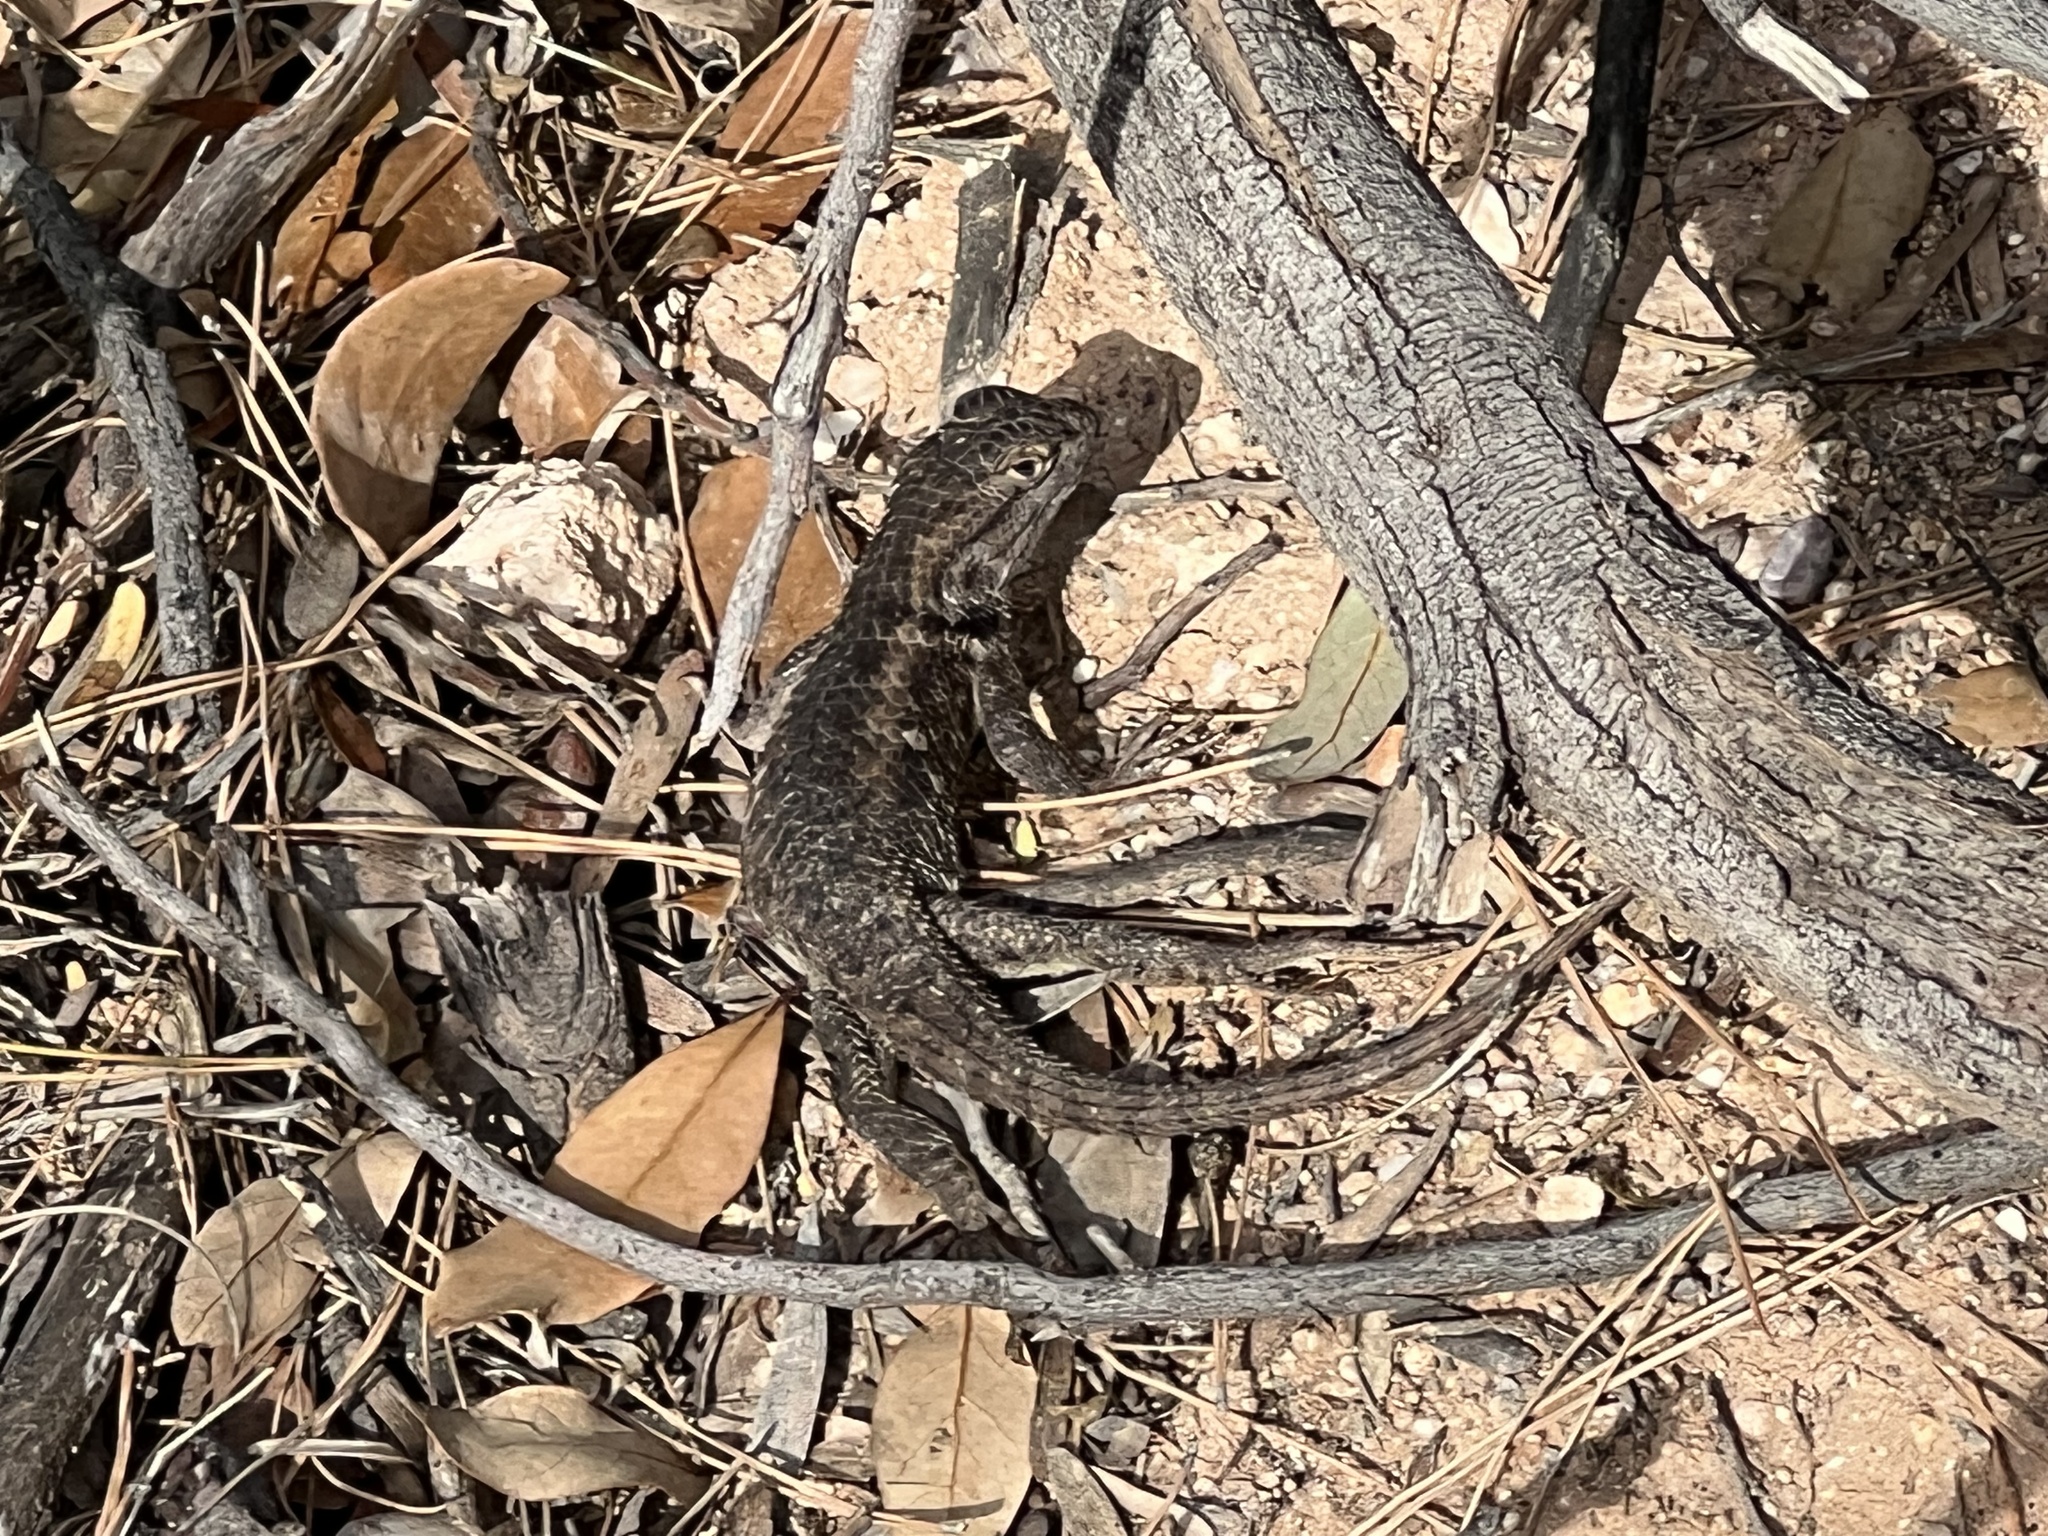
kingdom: Animalia
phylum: Chordata
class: Squamata
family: Phrynosomatidae
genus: Sceloporus
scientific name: Sceloporus magister
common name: Desert spiny lizard
